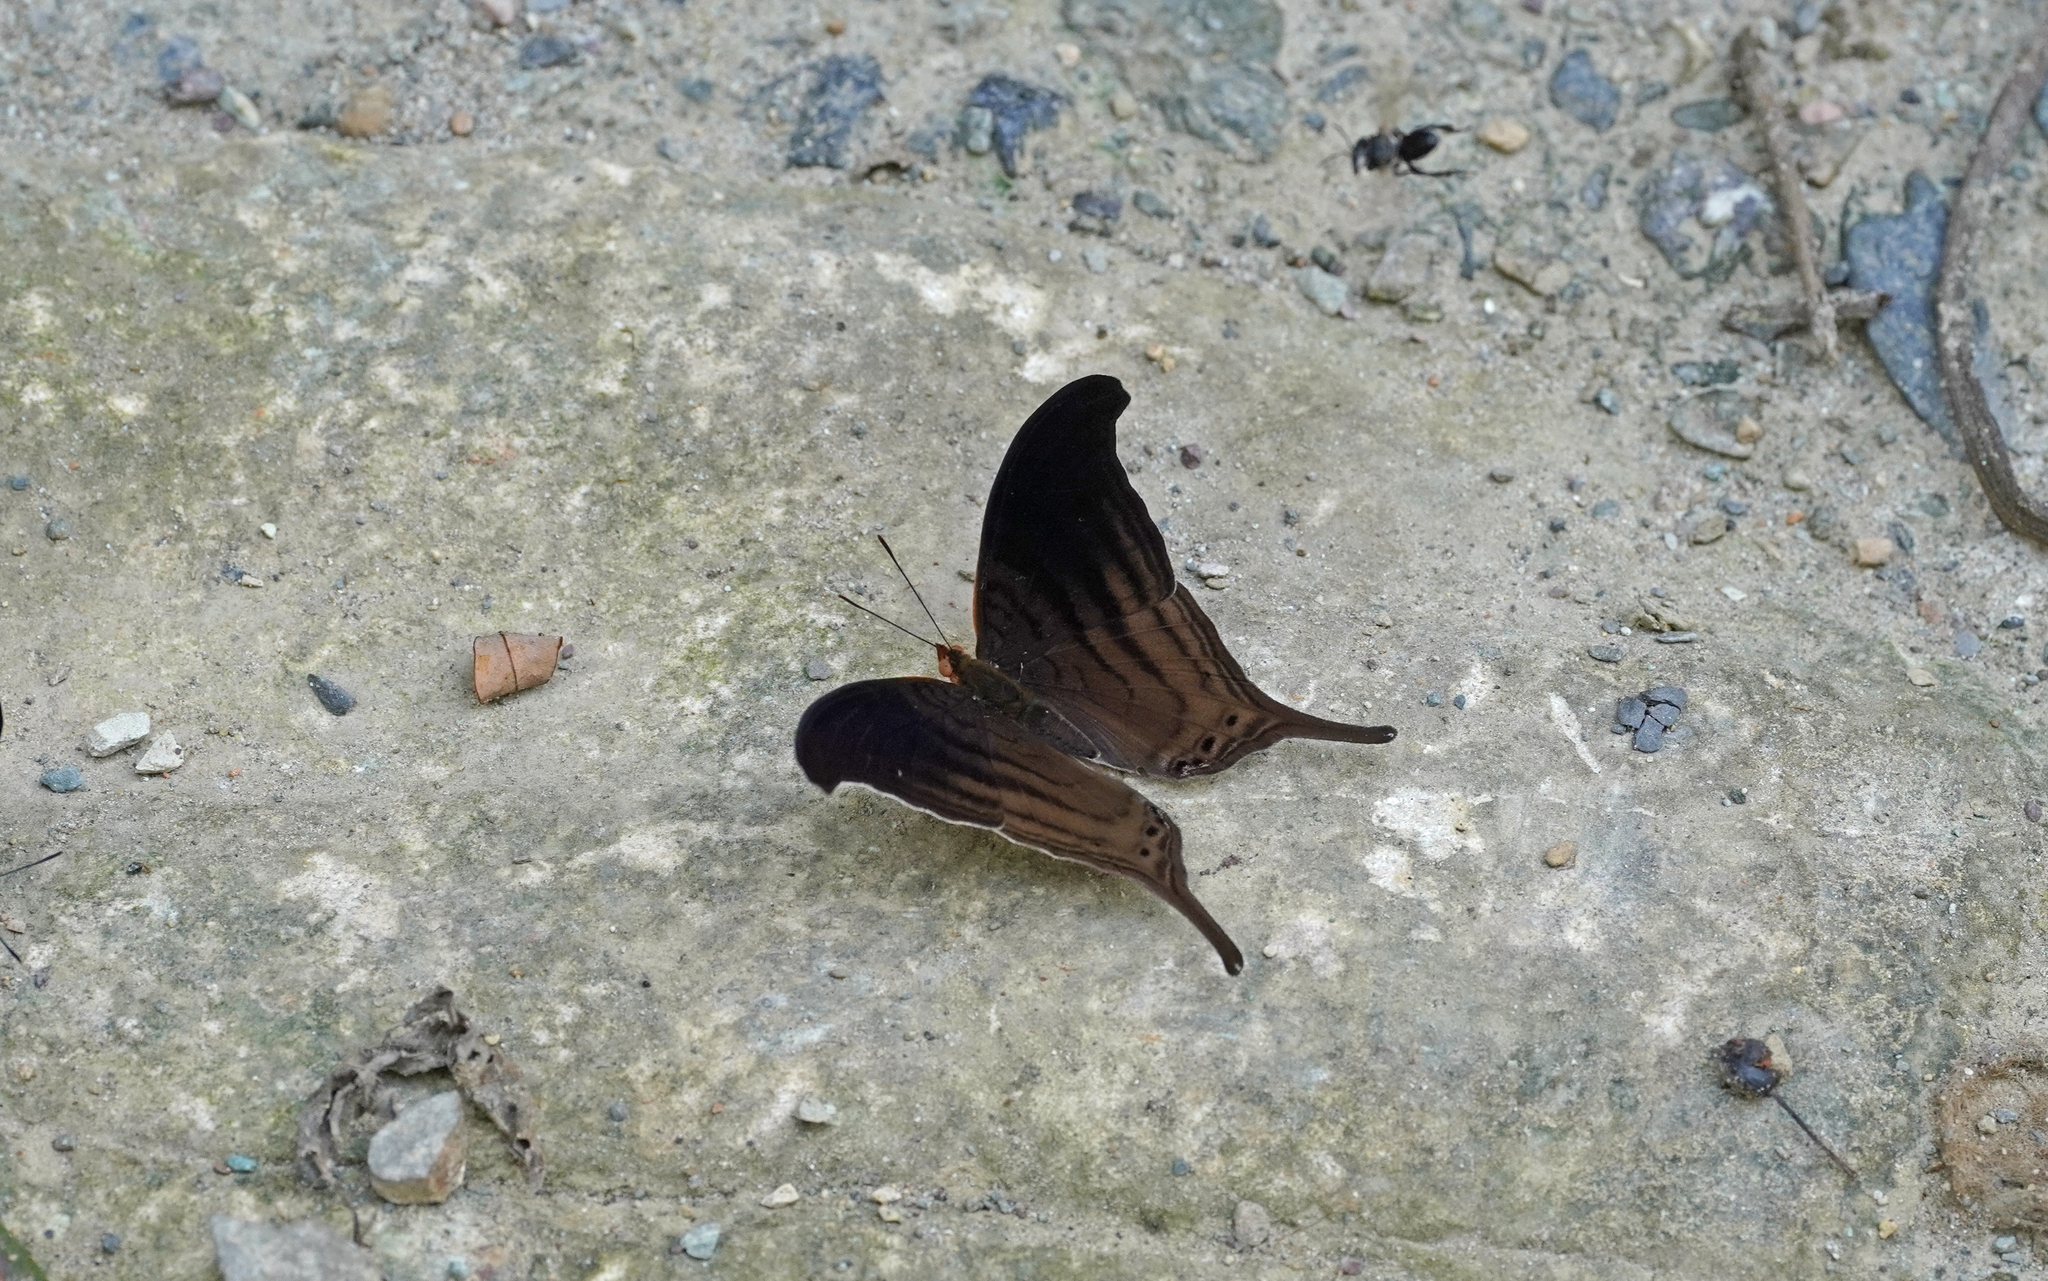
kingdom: Animalia
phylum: Arthropoda
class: Insecta
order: Lepidoptera
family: Nymphalidae
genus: Marpesia
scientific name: Marpesia themistocles
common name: Norica daggerwing
